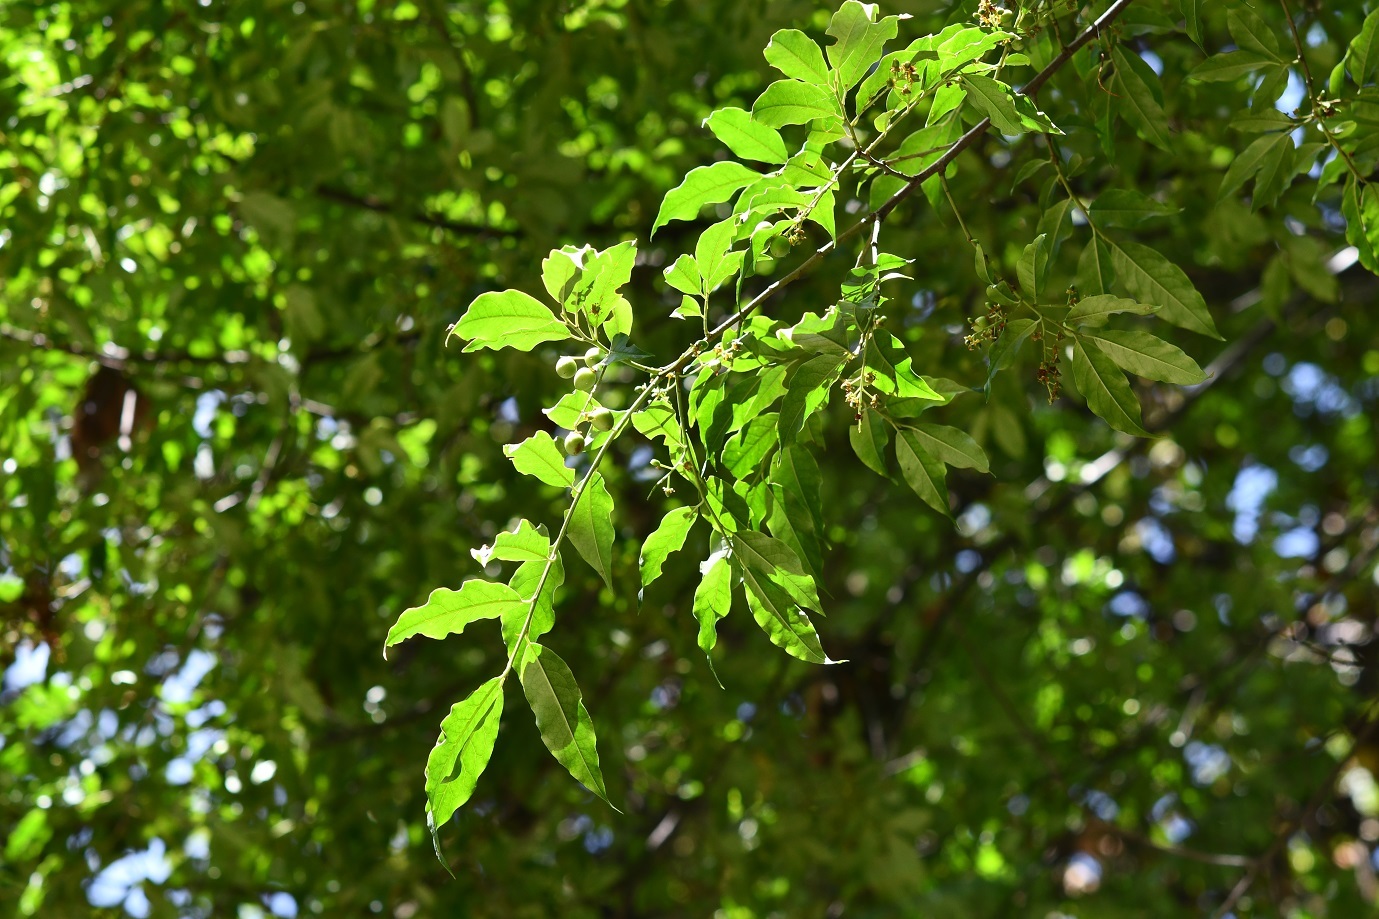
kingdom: Plantae
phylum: Tracheophyta
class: Magnoliopsida
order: Rosales
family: Rosaceae
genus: Prunus
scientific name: Prunus rhamnoides
